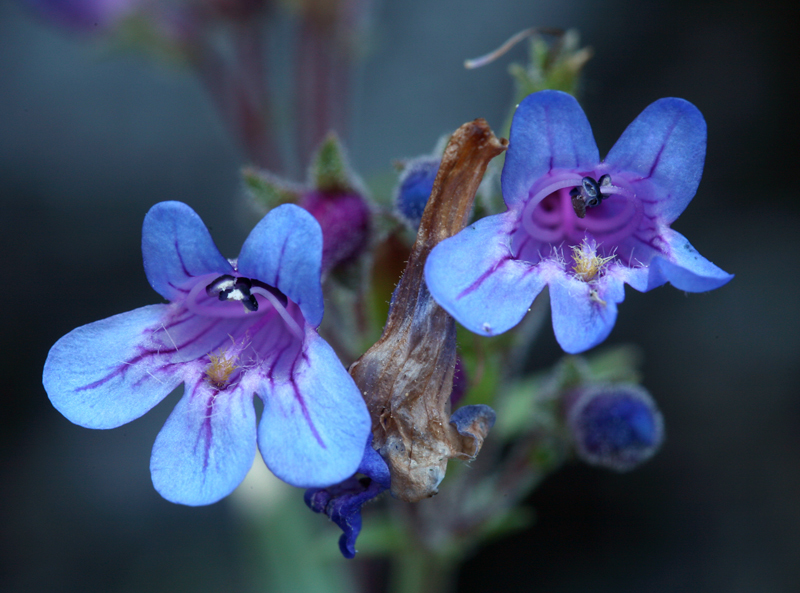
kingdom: Plantae
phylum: Tracheophyta
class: Magnoliopsida
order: Lamiales
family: Plantaginaceae
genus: Penstemon
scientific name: Penstemon humilis
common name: Low penstemon
